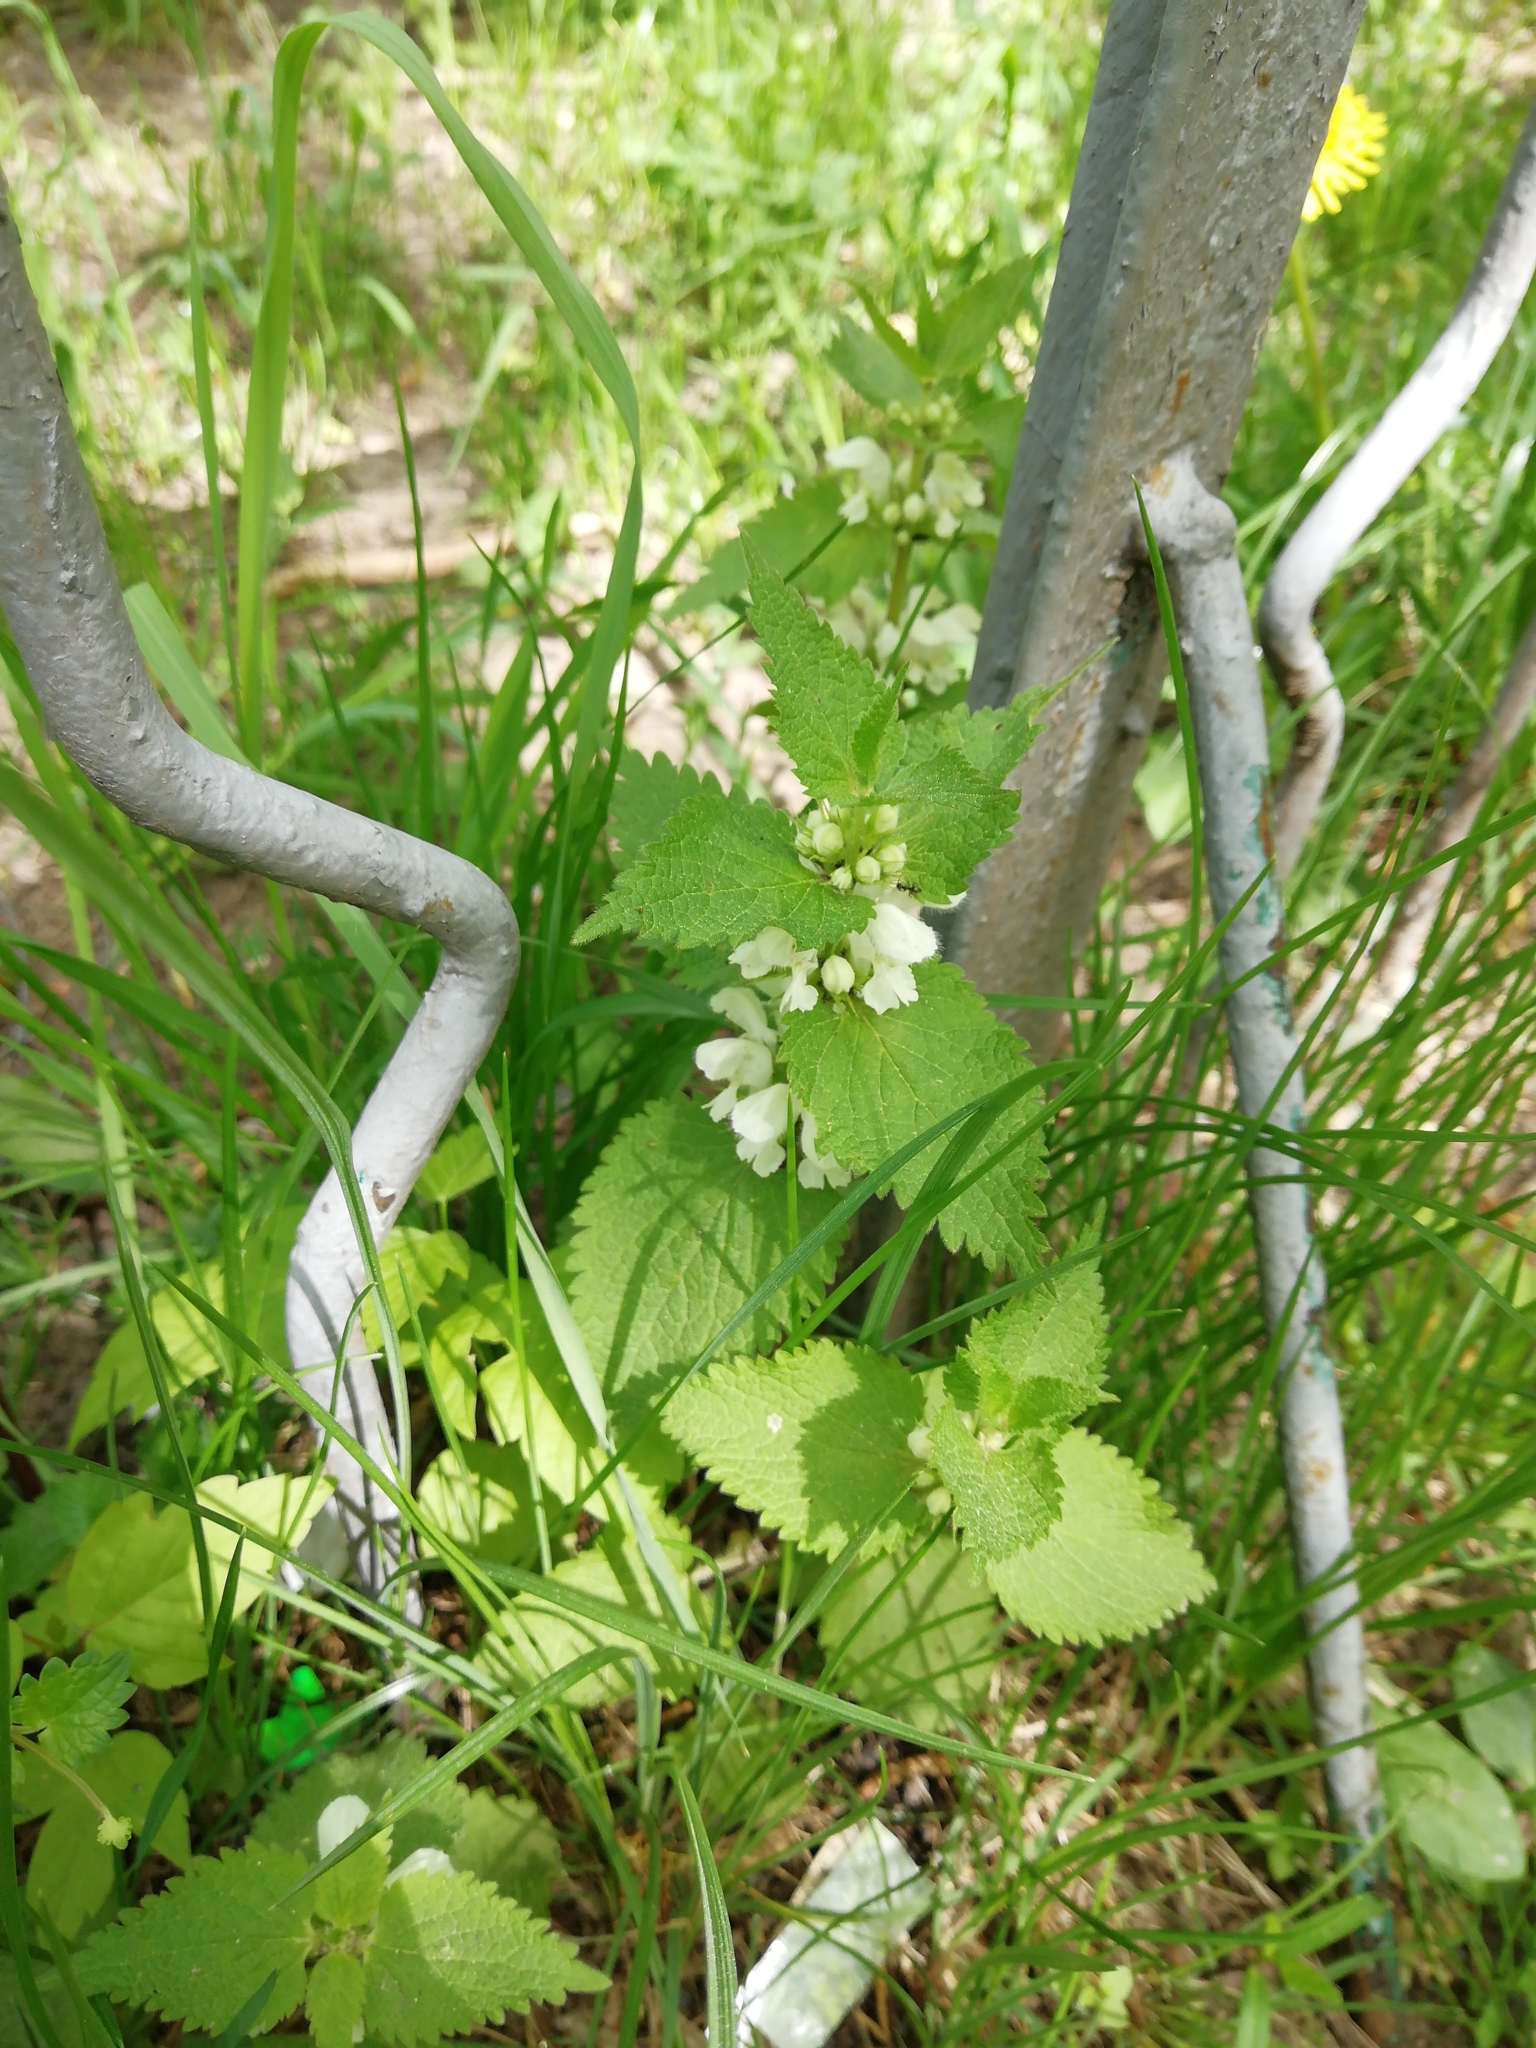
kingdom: Plantae
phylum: Tracheophyta
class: Magnoliopsida
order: Lamiales
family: Lamiaceae
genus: Lamium
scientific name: Lamium album
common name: White dead-nettle
